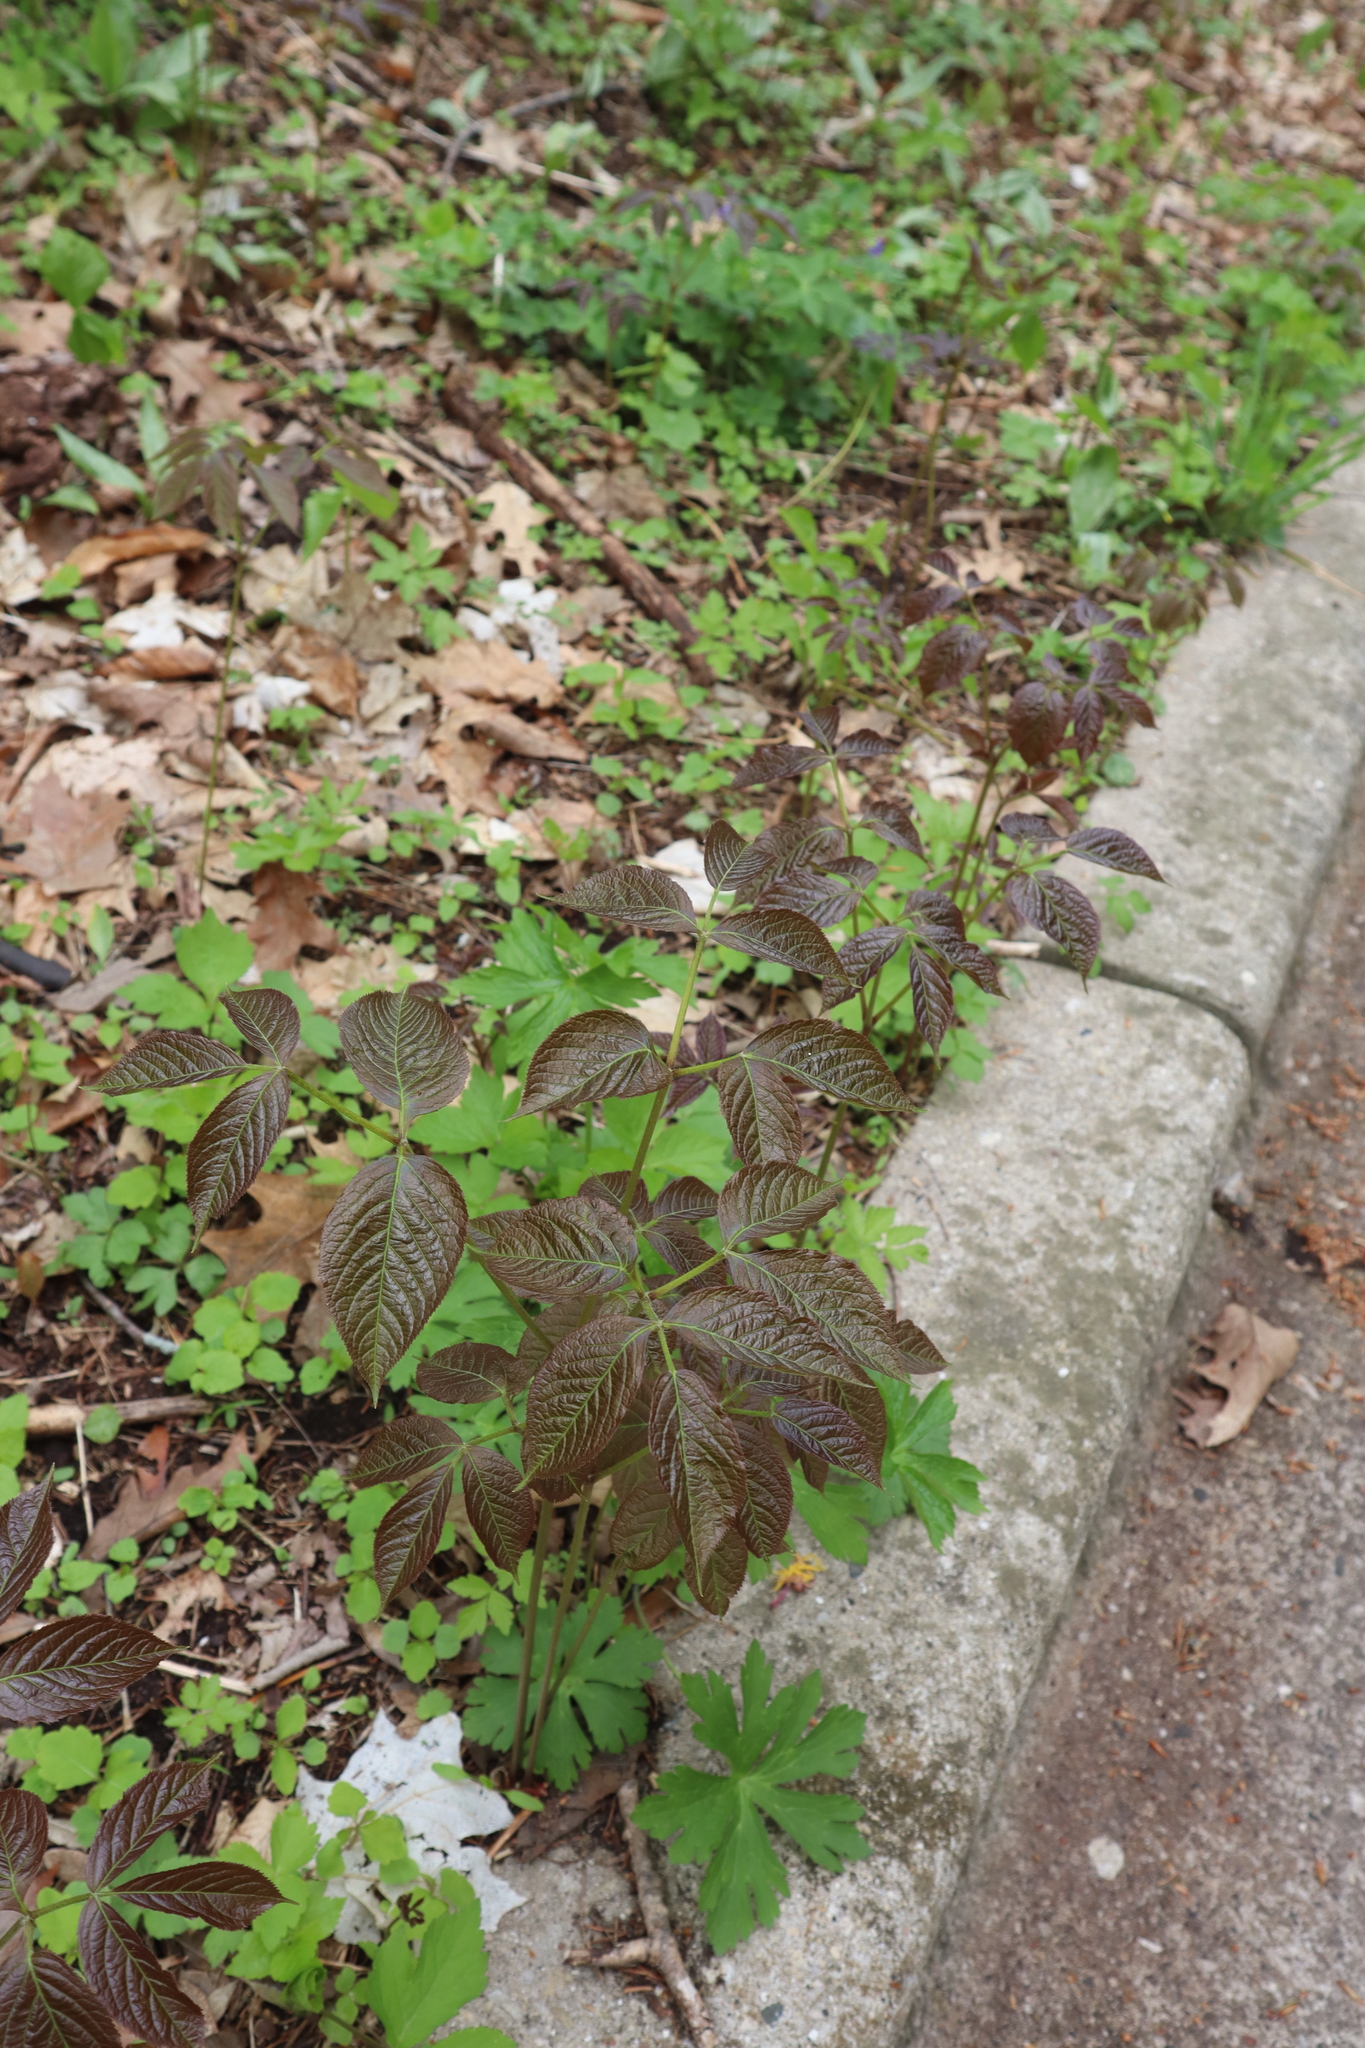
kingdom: Plantae
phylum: Tracheophyta
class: Magnoliopsida
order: Apiales
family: Araliaceae
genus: Aralia
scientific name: Aralia nudicaulis
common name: Wild sarsaparilla
